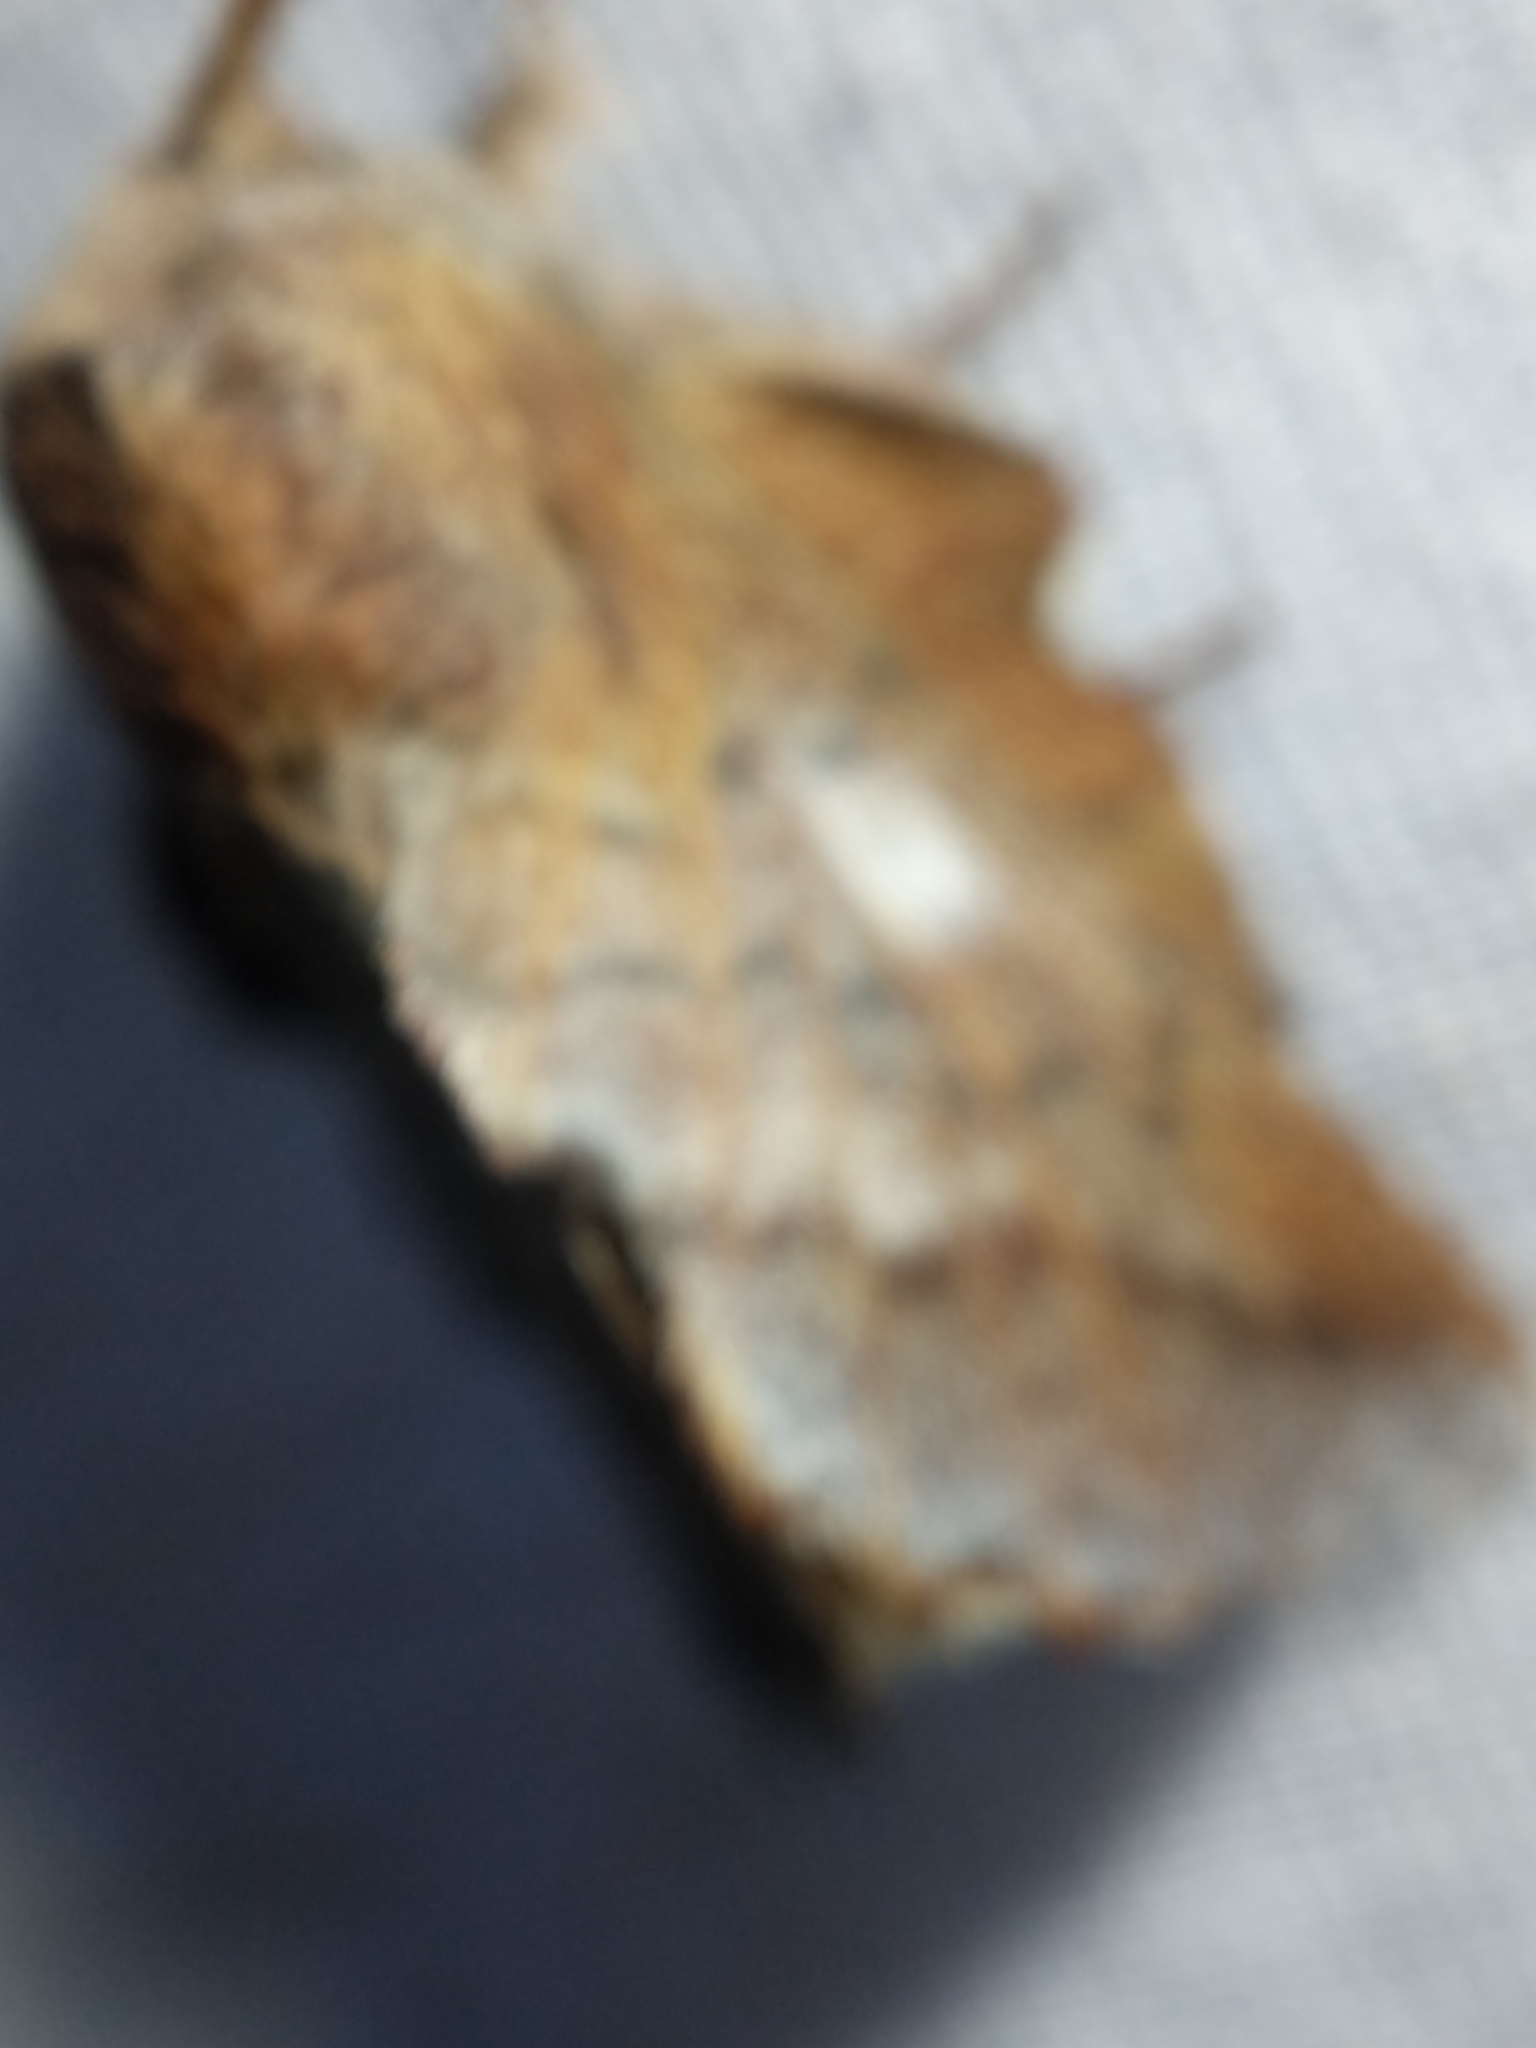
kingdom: Animalia
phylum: Arthropoda
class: Insecta
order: Lepidoptera
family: Lasiocampidae
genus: Phyllodesma
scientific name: Phyllodesma americana
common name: American lappet moth
